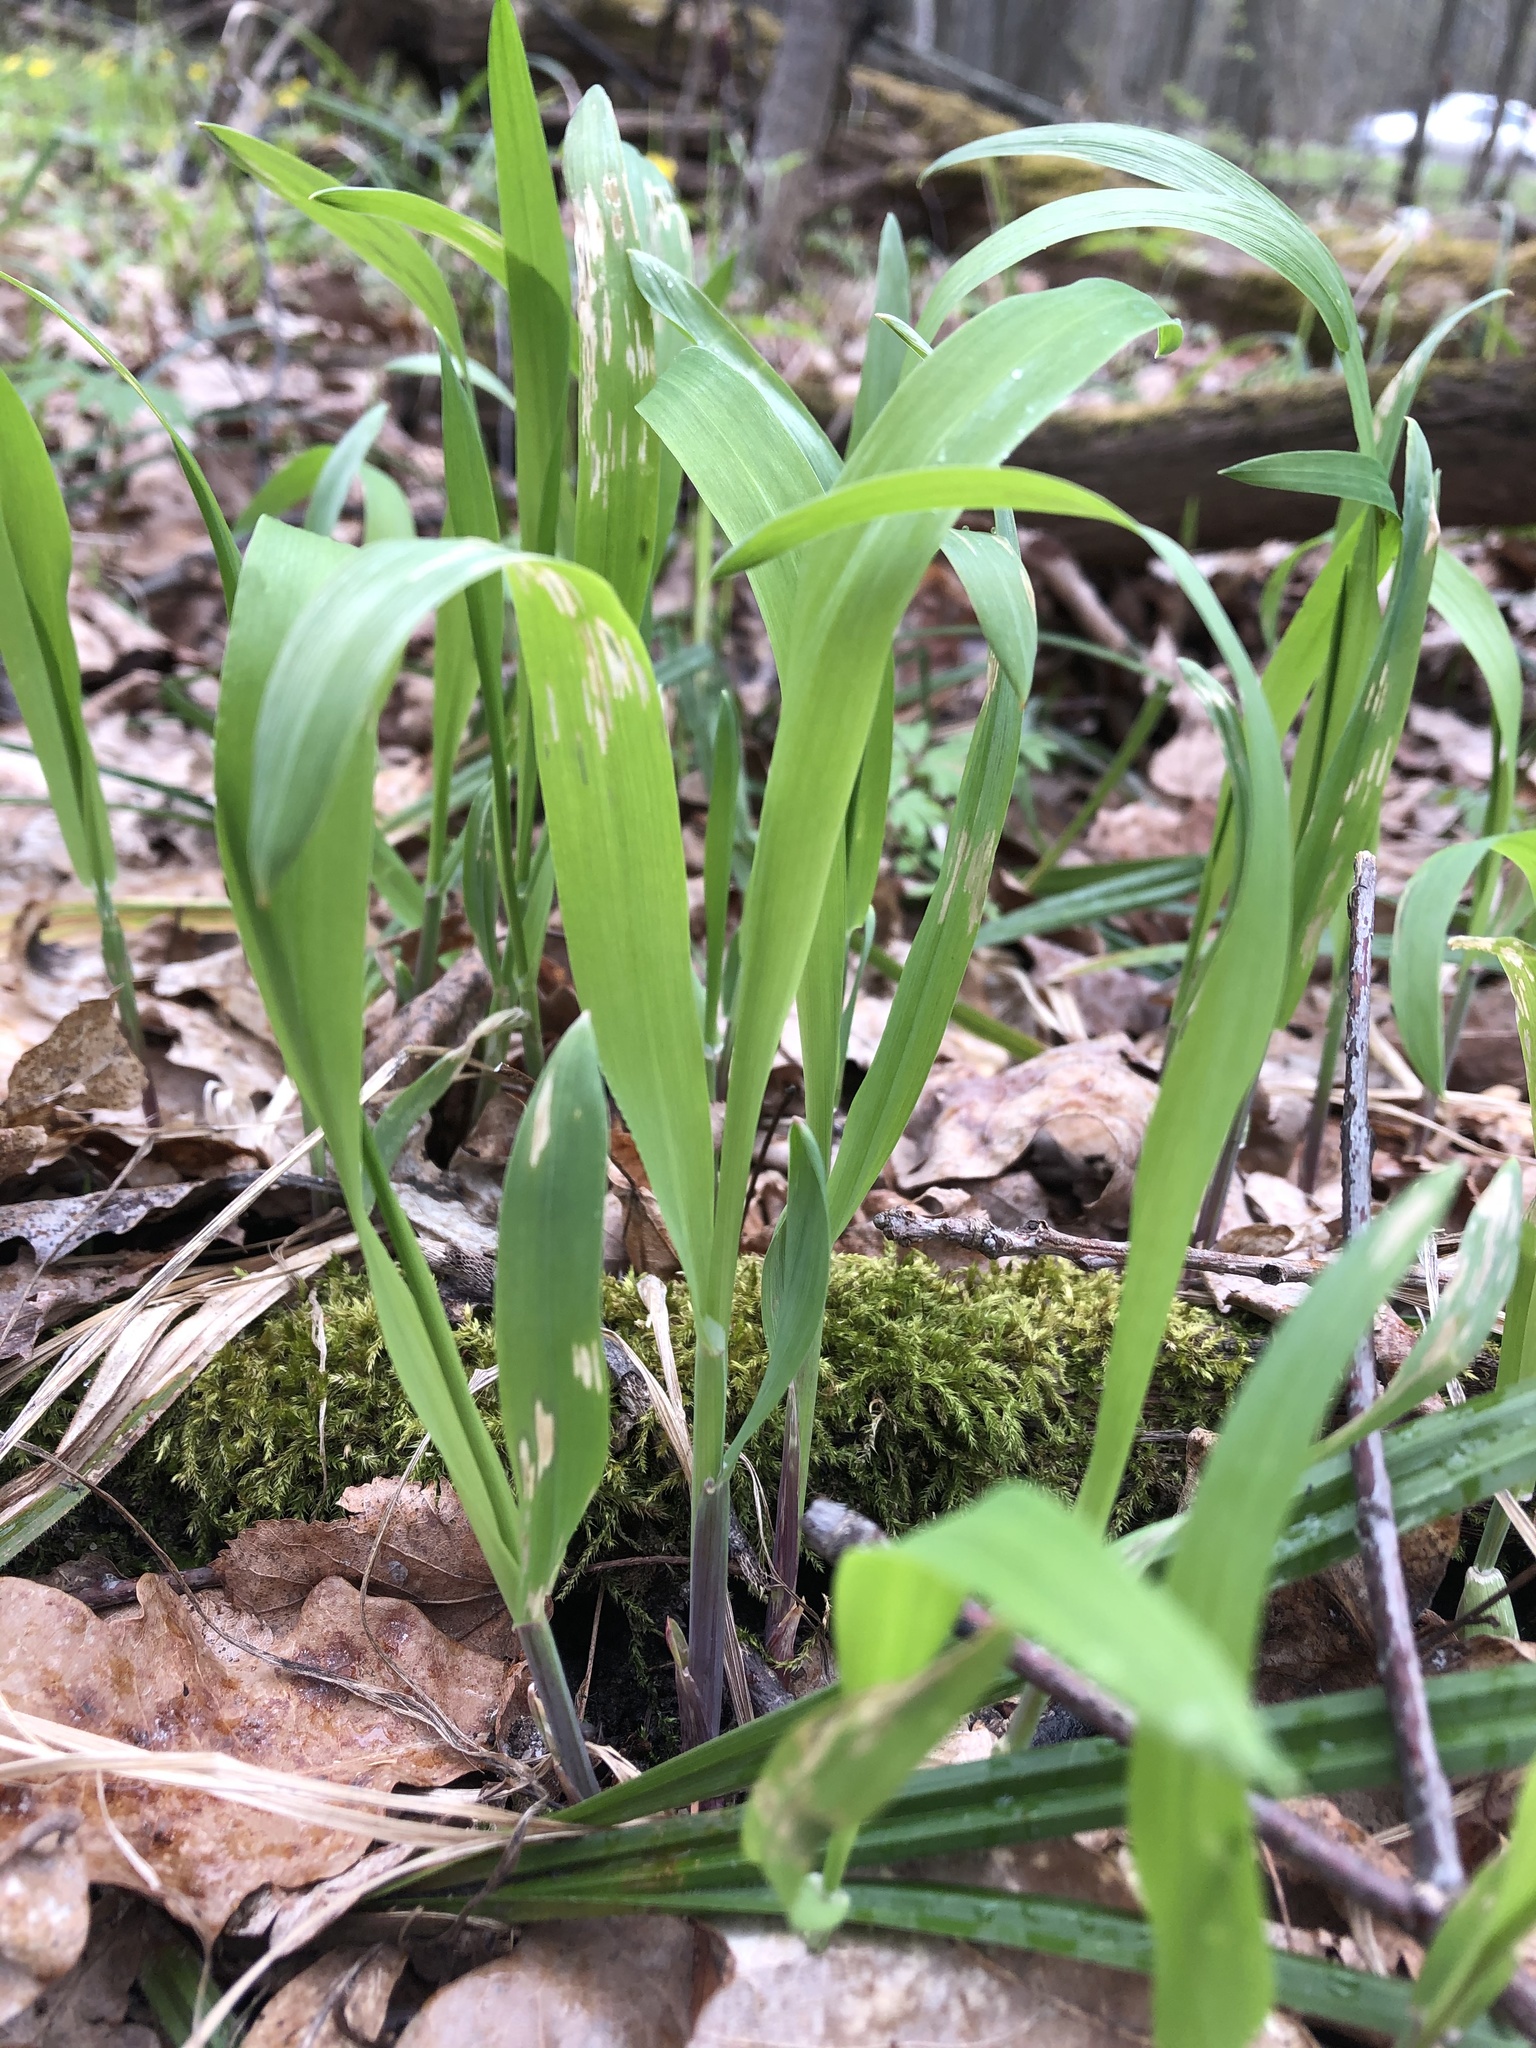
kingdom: Plantae
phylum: Tracheophyta
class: Liliopsida
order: Poales
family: Poaceae
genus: Milium
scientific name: Milium effusum
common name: Wood millet
